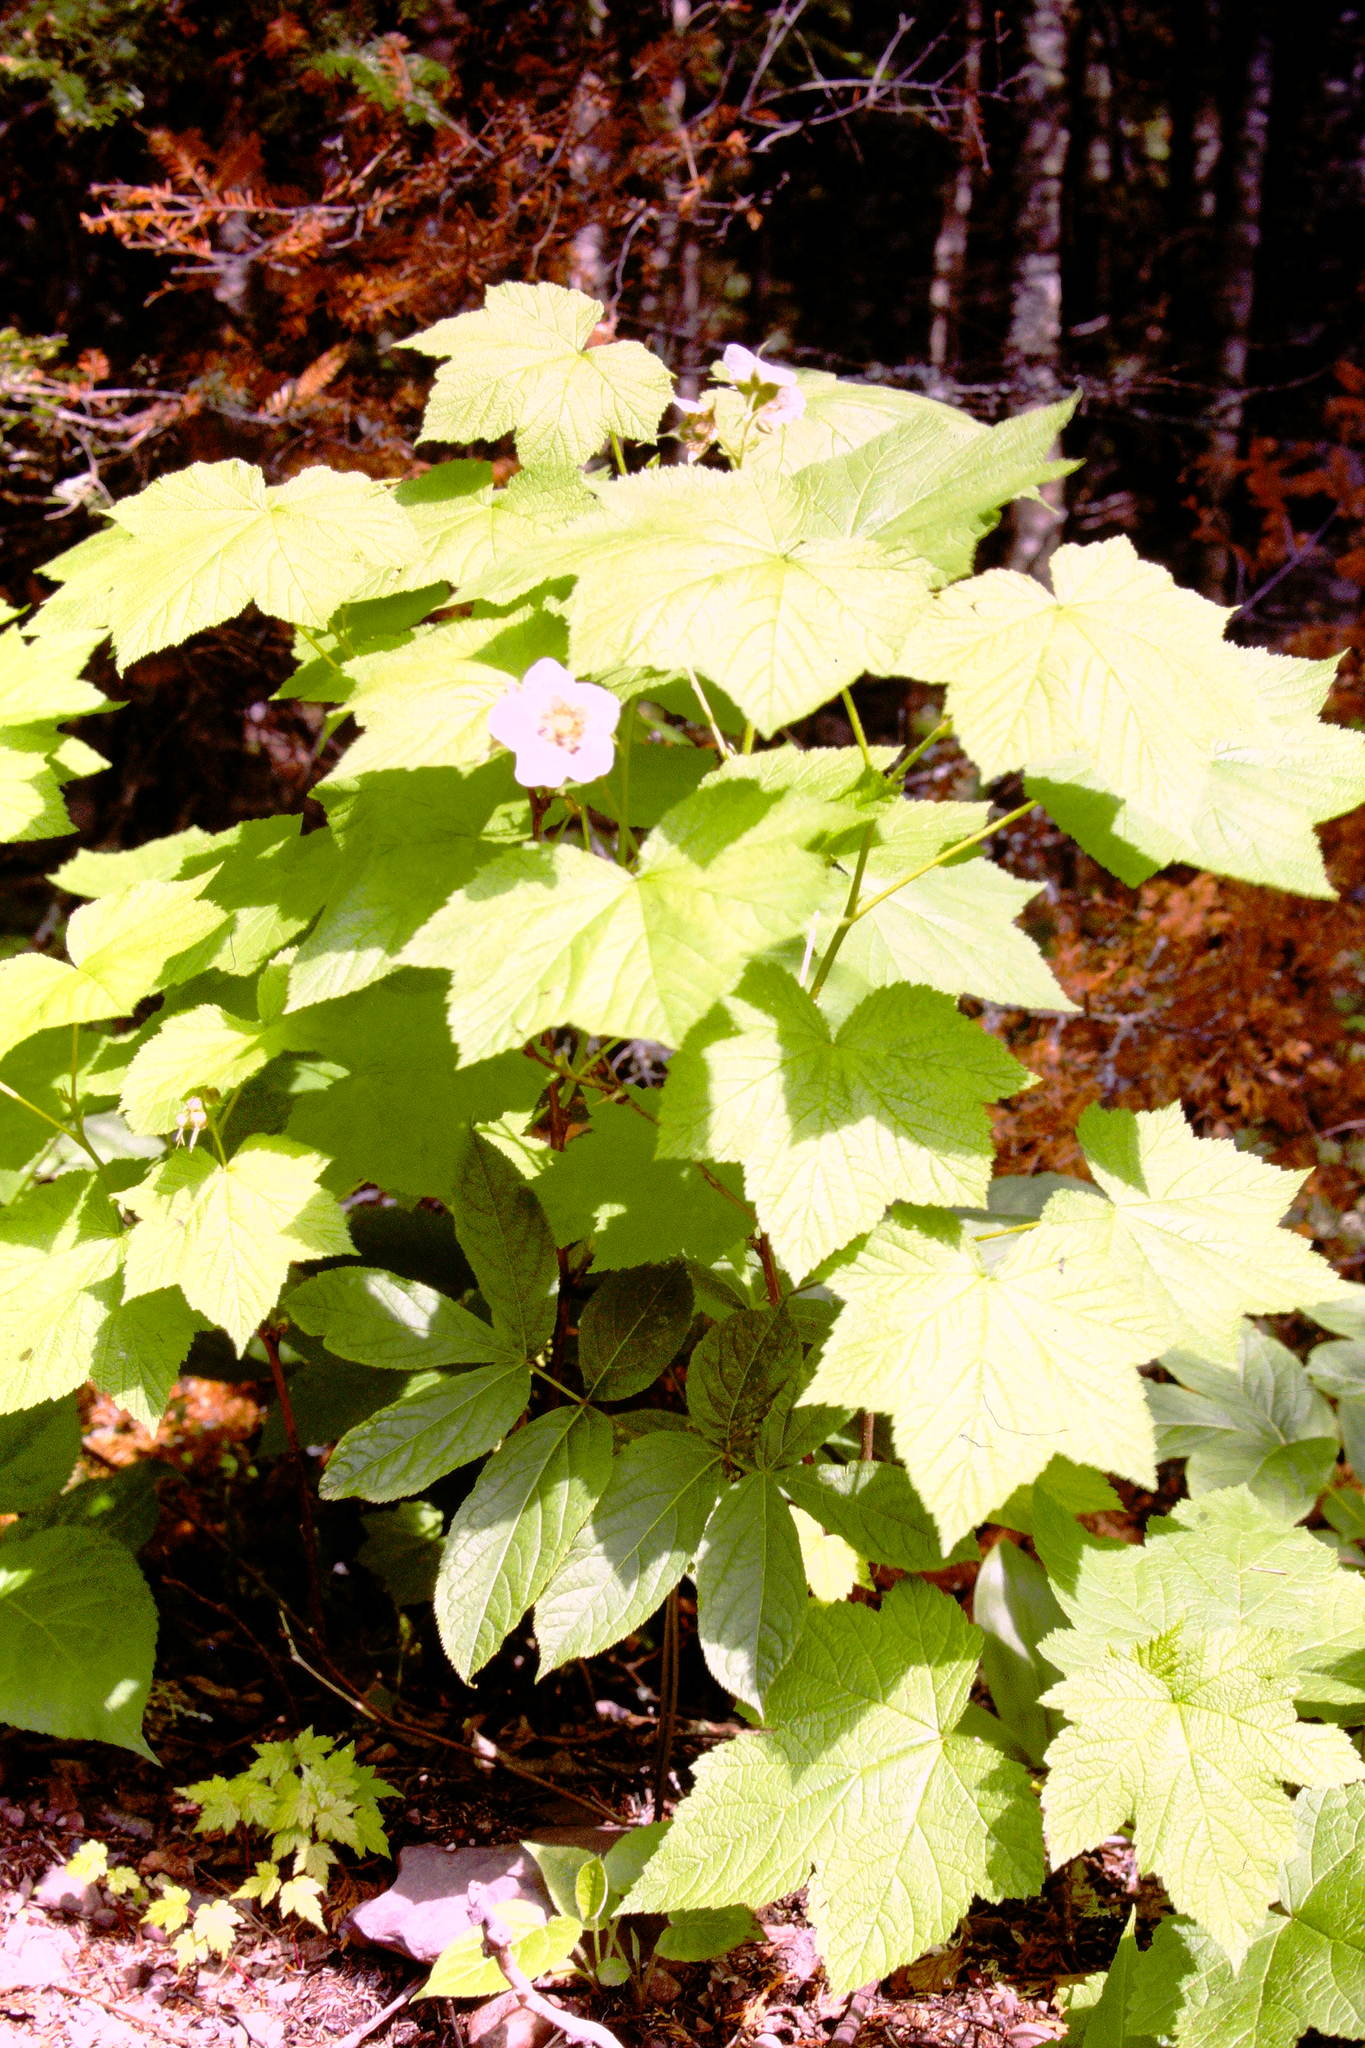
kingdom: Plantae
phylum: Tracheophyta
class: Magnoliopsida
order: Rosales
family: Rosaceae
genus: Rubus
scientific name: Rubus parviflorus
